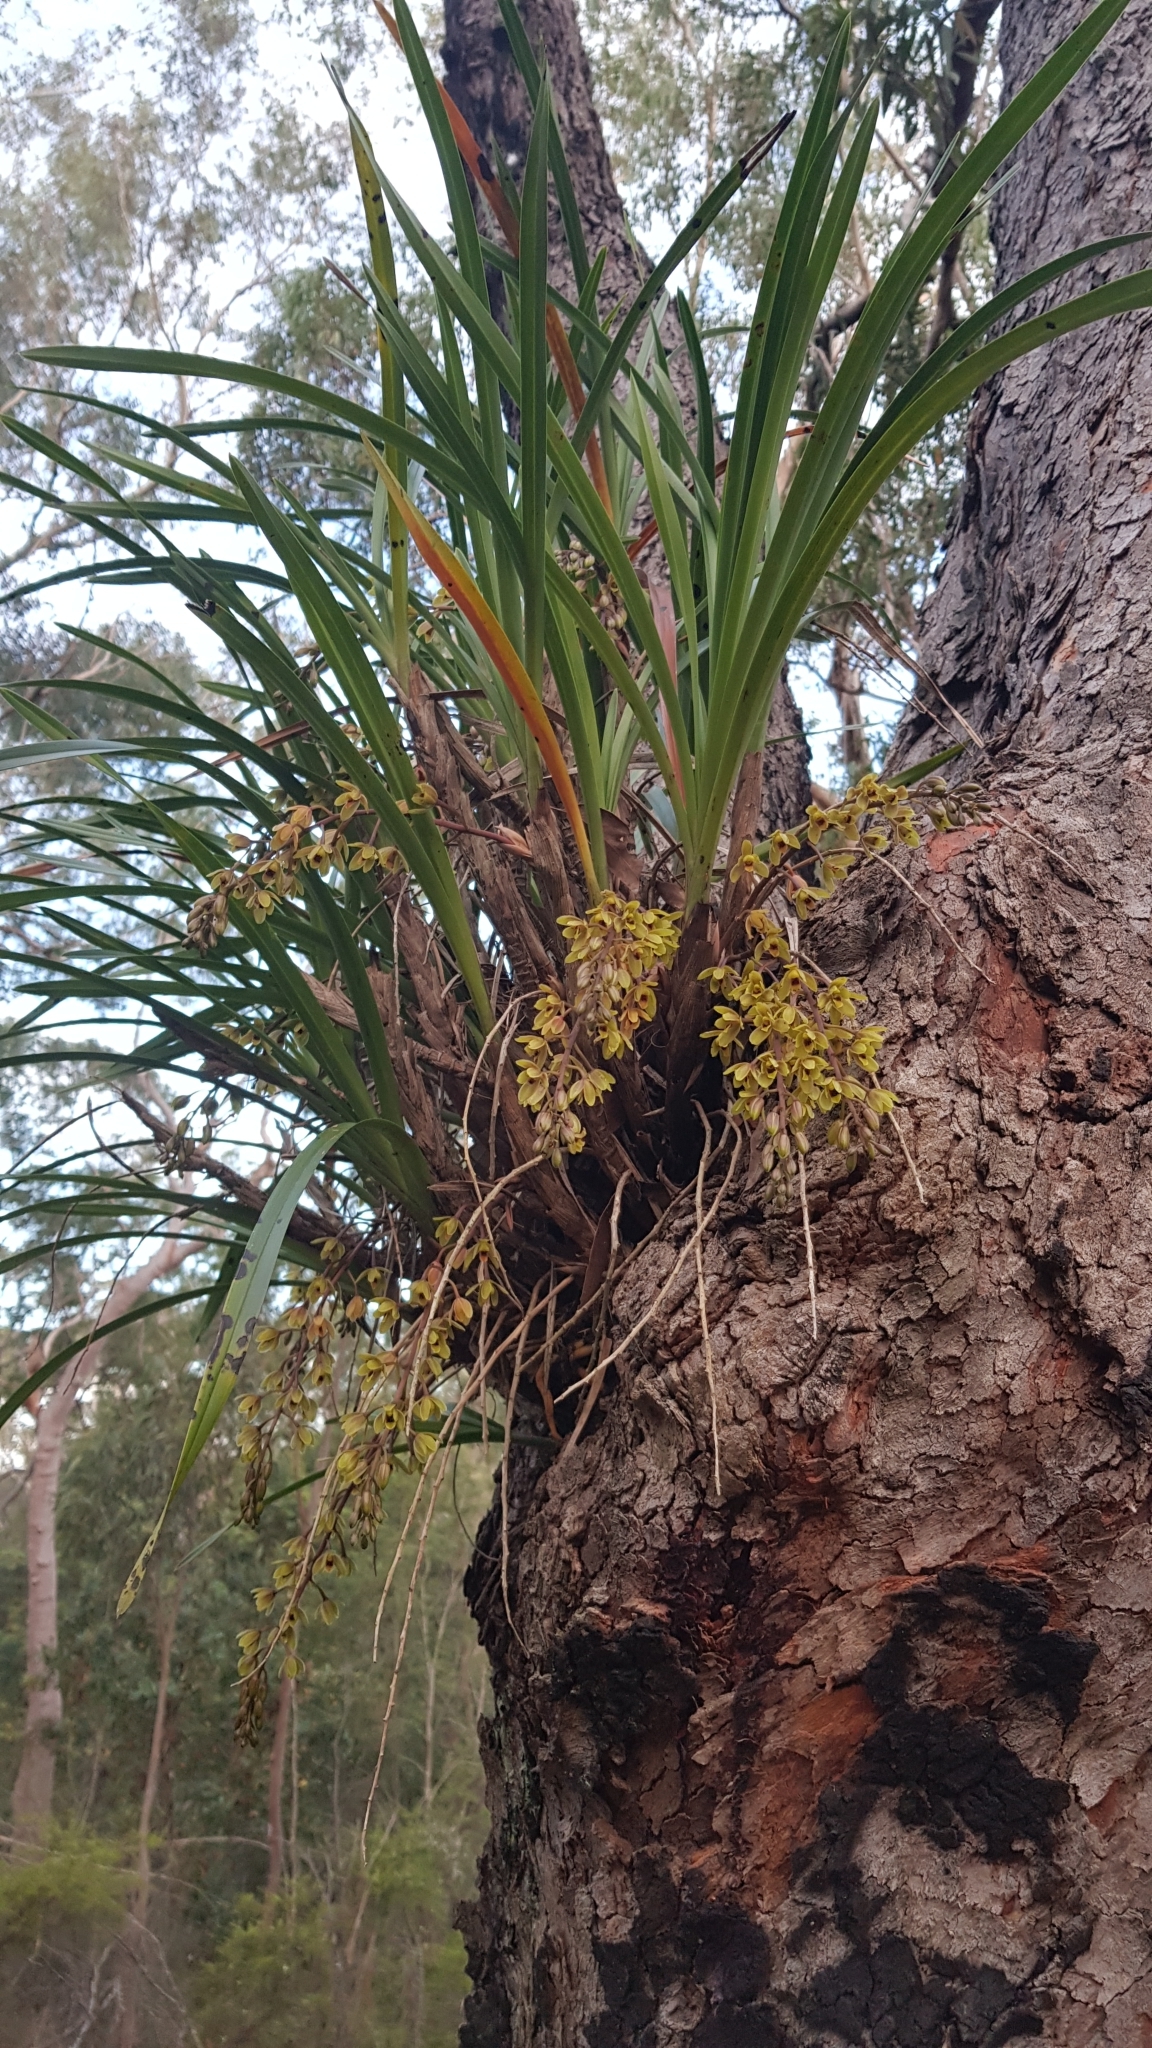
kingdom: Plantae
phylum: Tracheophyta
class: Liliopsida
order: Asparagales
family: Orchidaceae
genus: Cymbidium
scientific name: Cymbidium suave
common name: Snake orchid
